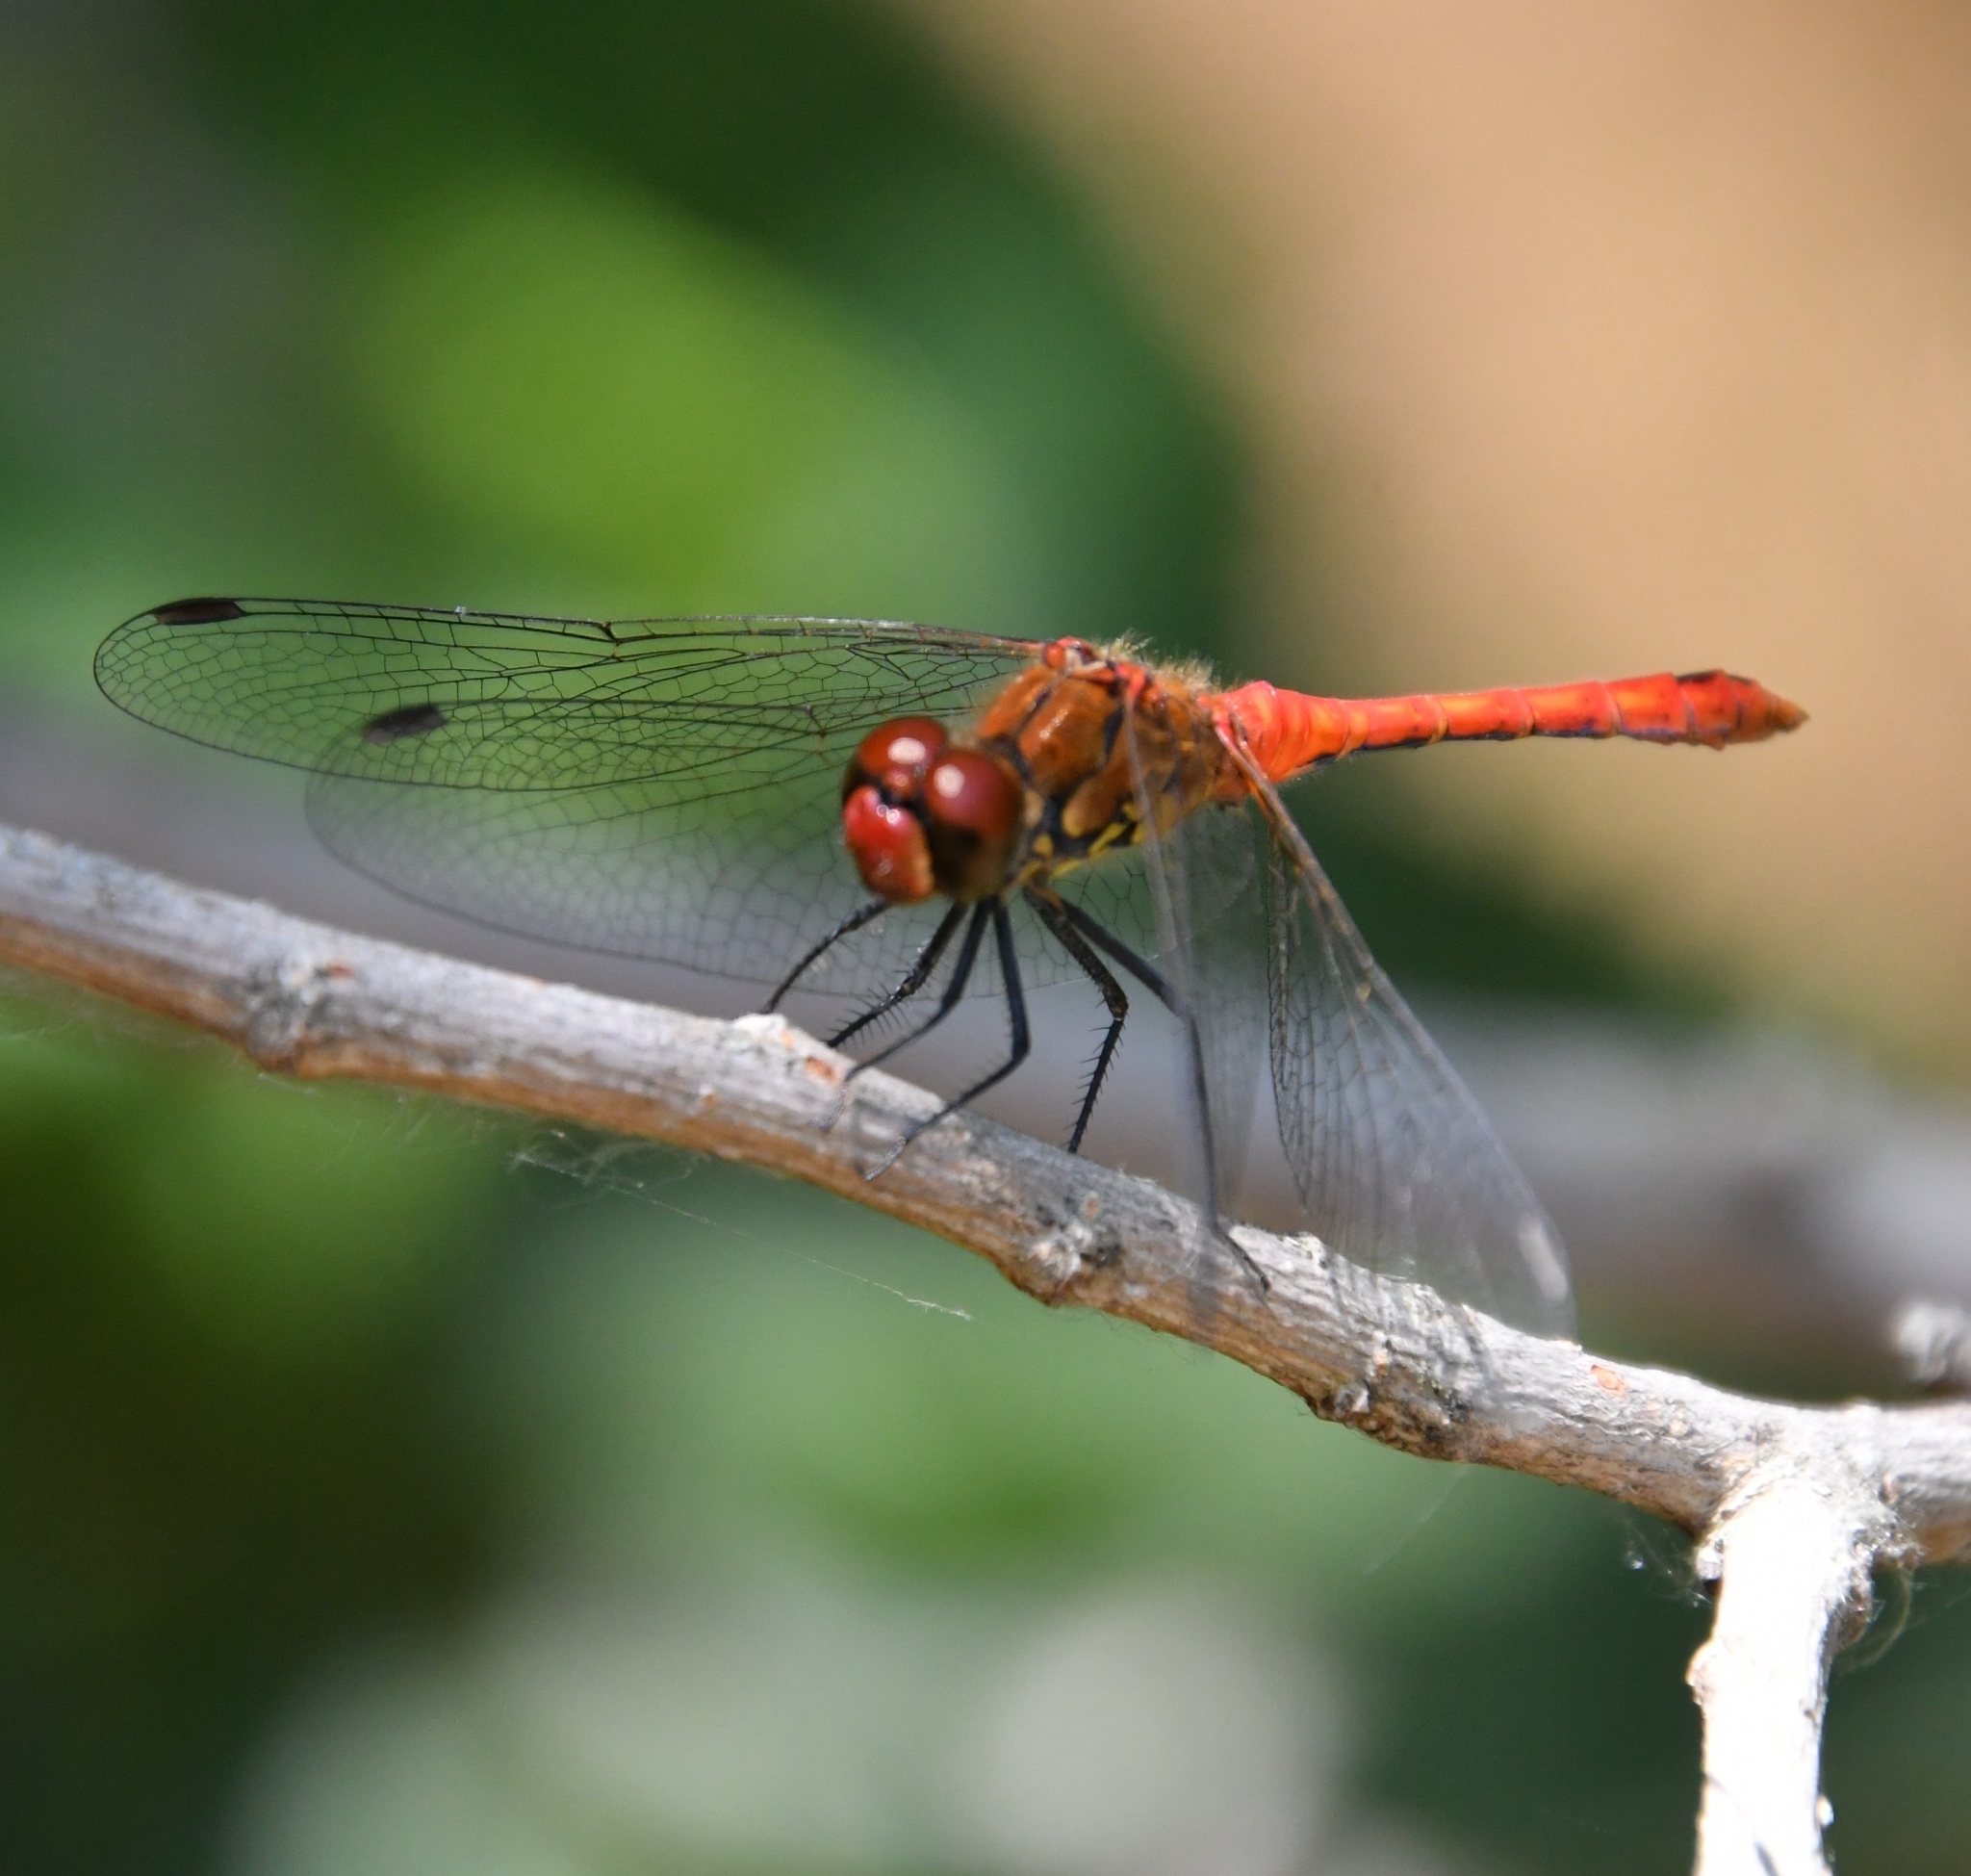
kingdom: Animalia
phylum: Arthropoda
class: Insecta
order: Odonata
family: Libellulidae
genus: Sympetrum
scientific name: Sympetrum sanguineum
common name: Ruddy darter
